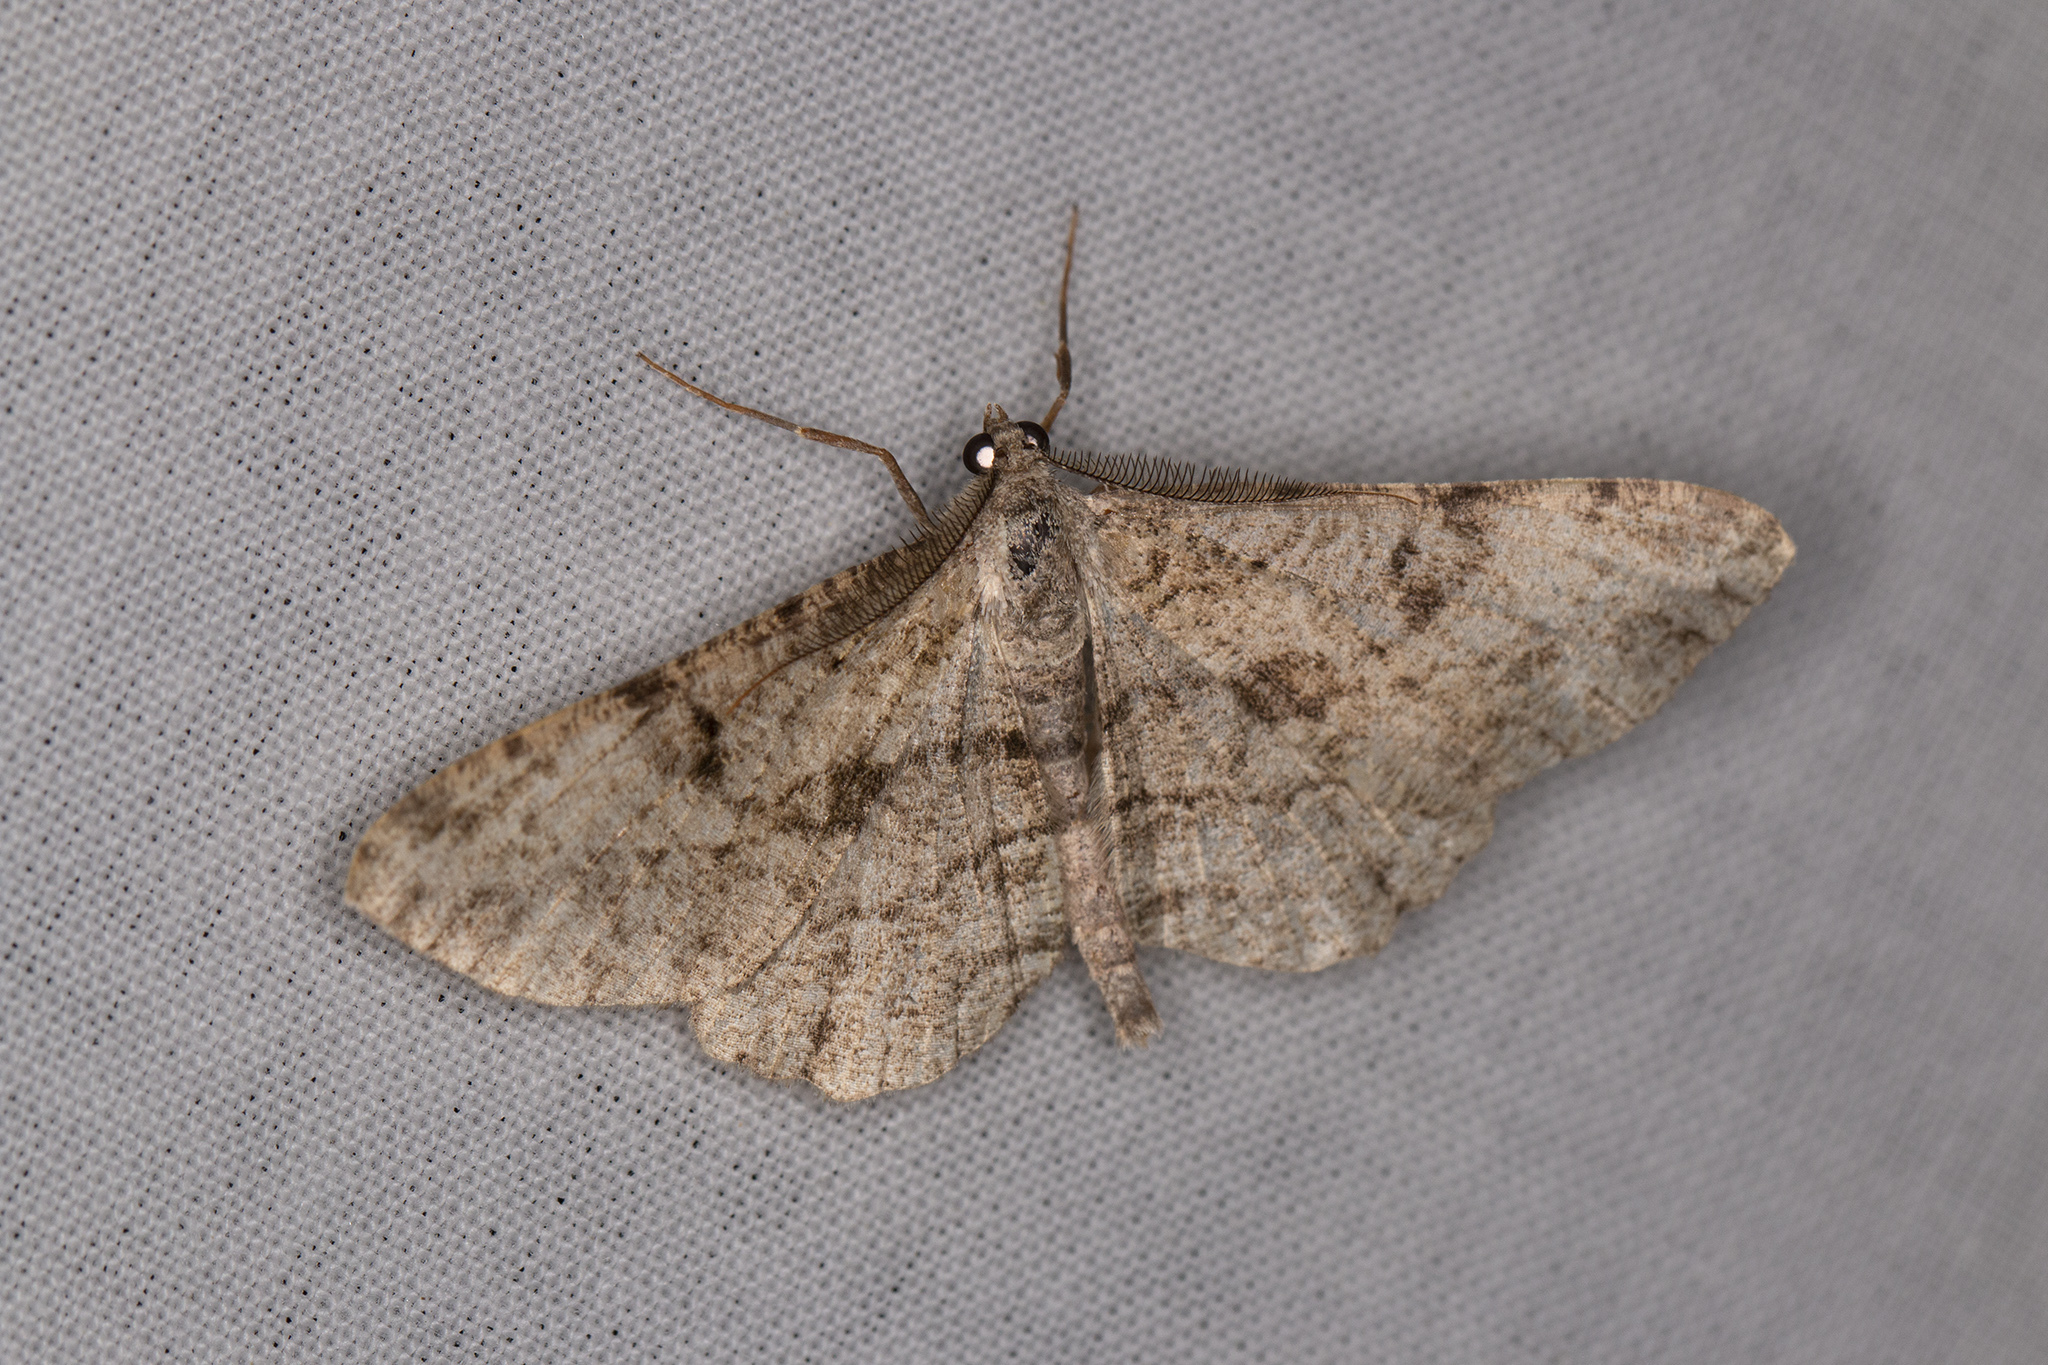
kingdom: Animalia
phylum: Arthropoda
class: Insecta
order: Lepidoptera
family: Geometridae
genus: Peribatodes
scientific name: Peribatodes rhomboidaria
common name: Willow beauty
